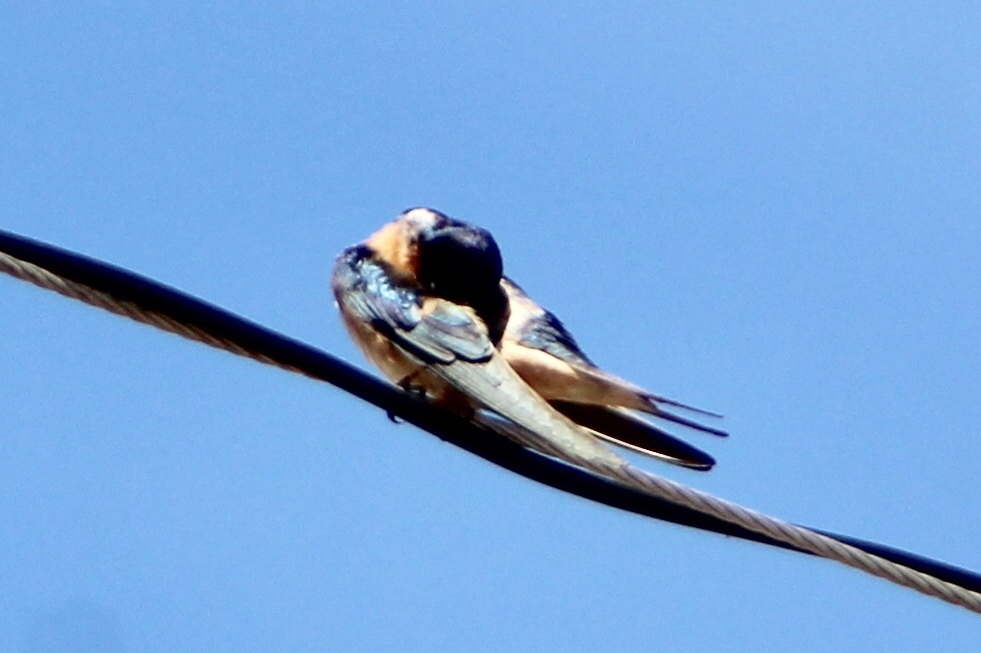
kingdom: Animalia
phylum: Chordata
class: Aves
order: Passeriformes
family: Hirundinidae
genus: Hirundo
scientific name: Hirundo rustica
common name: Barn swallow
